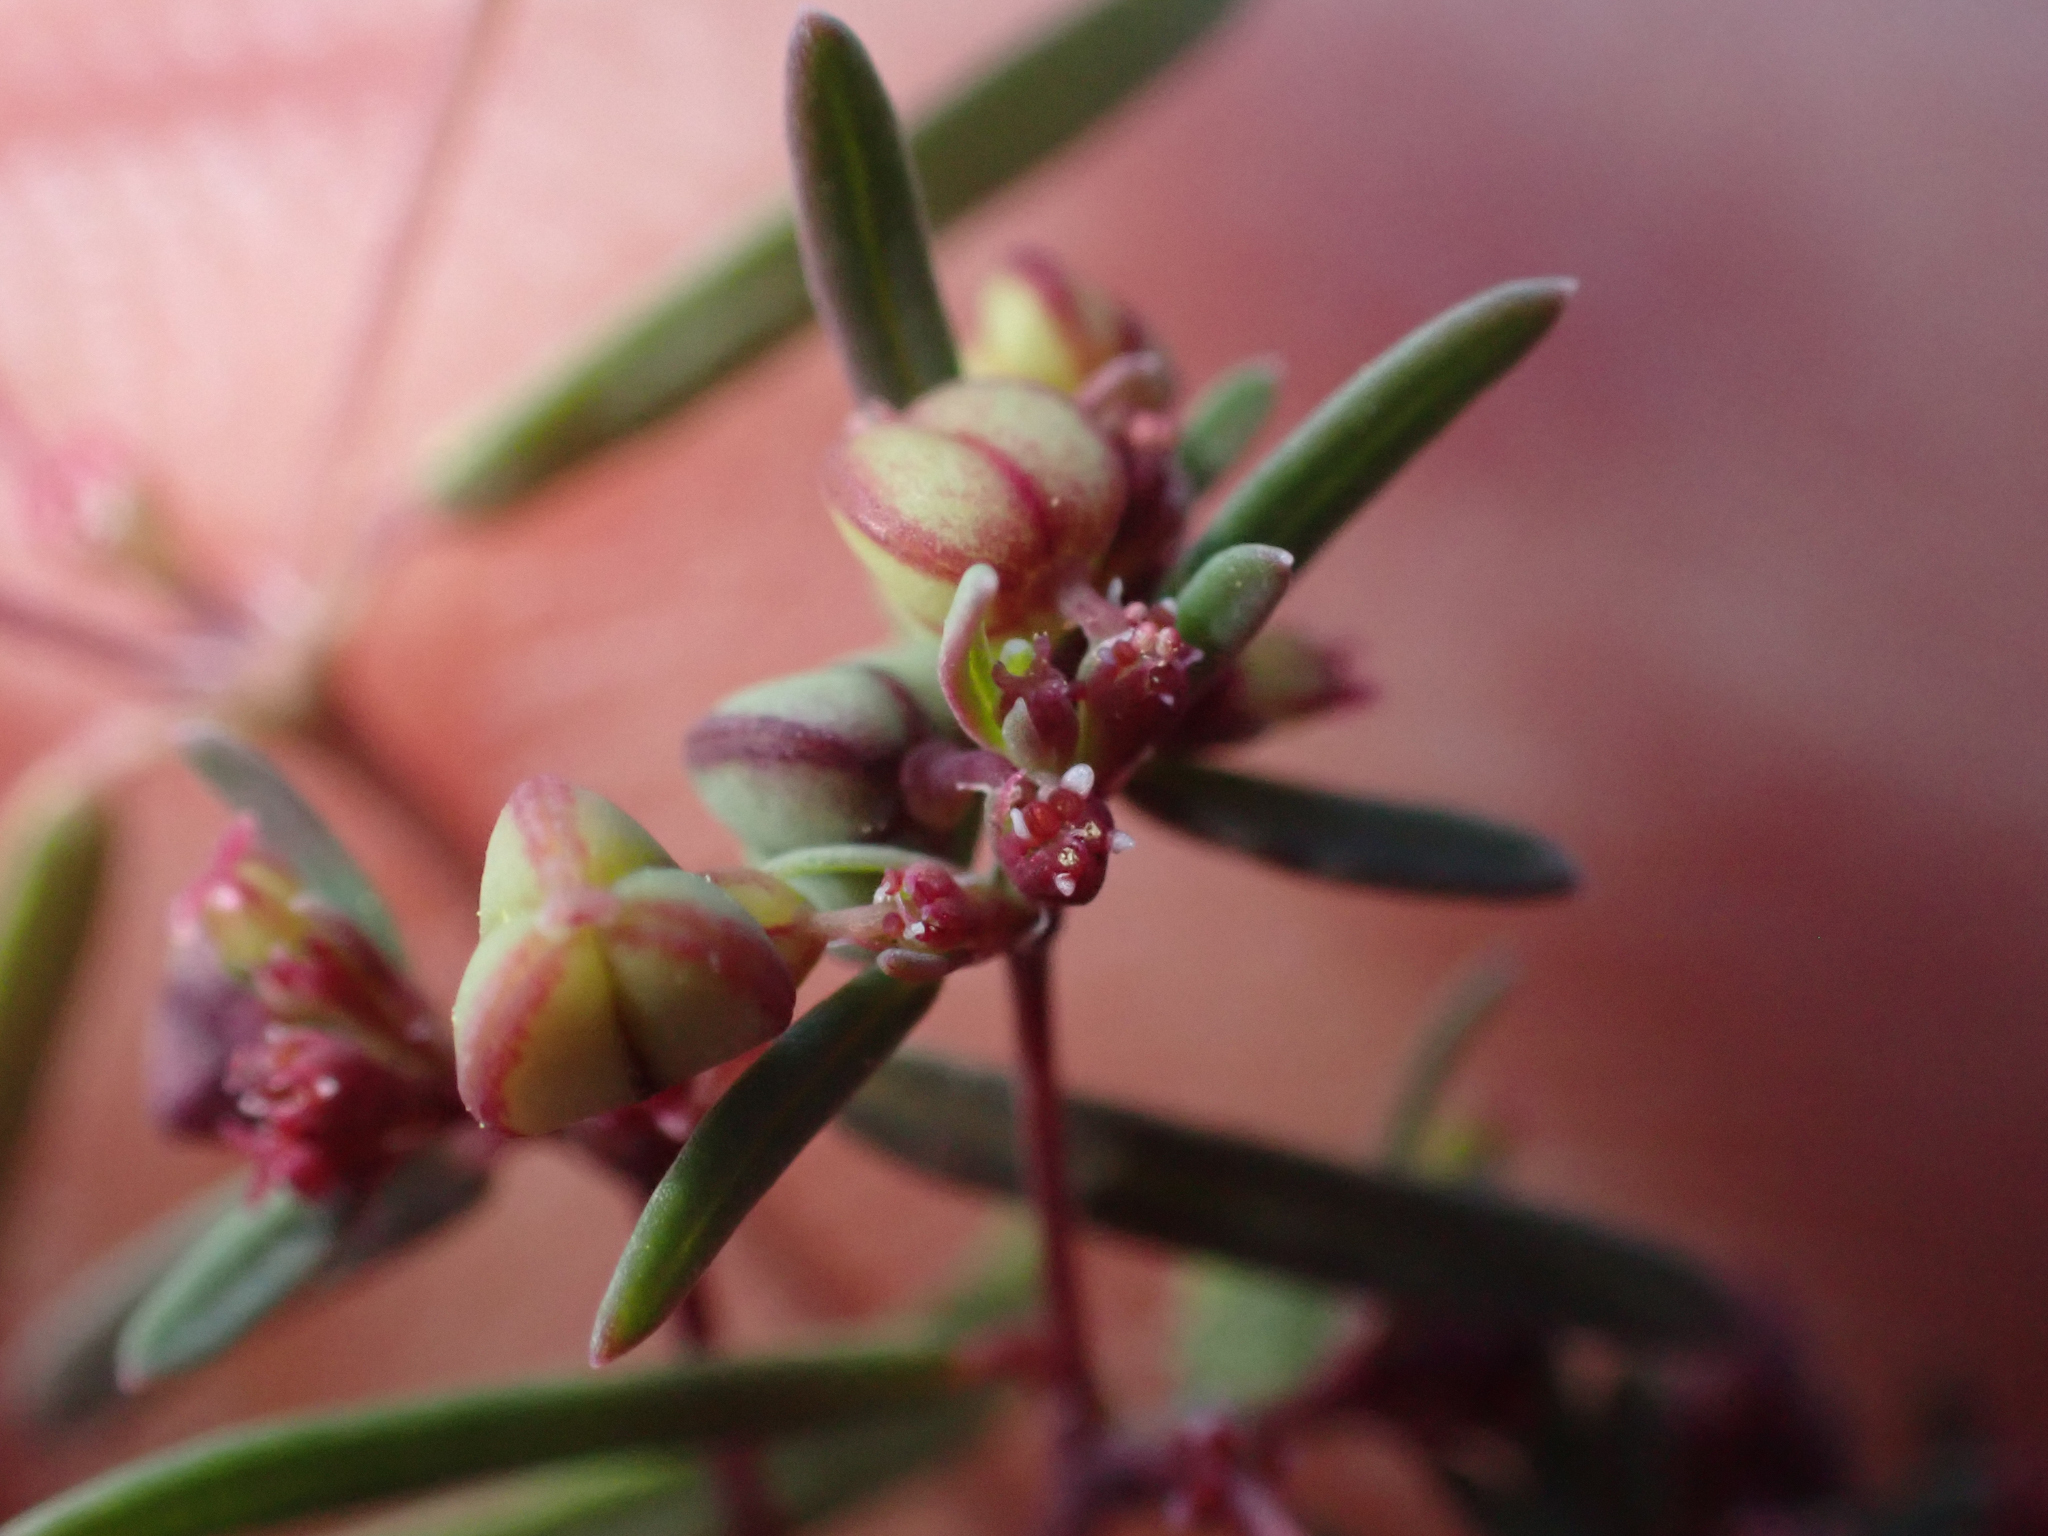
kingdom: Plantae
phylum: Tracheophyta
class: Magnoliopsida
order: Malpighiales
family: Euphorbiaceae
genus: Euphorbia
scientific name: Euphorbia revoluta
